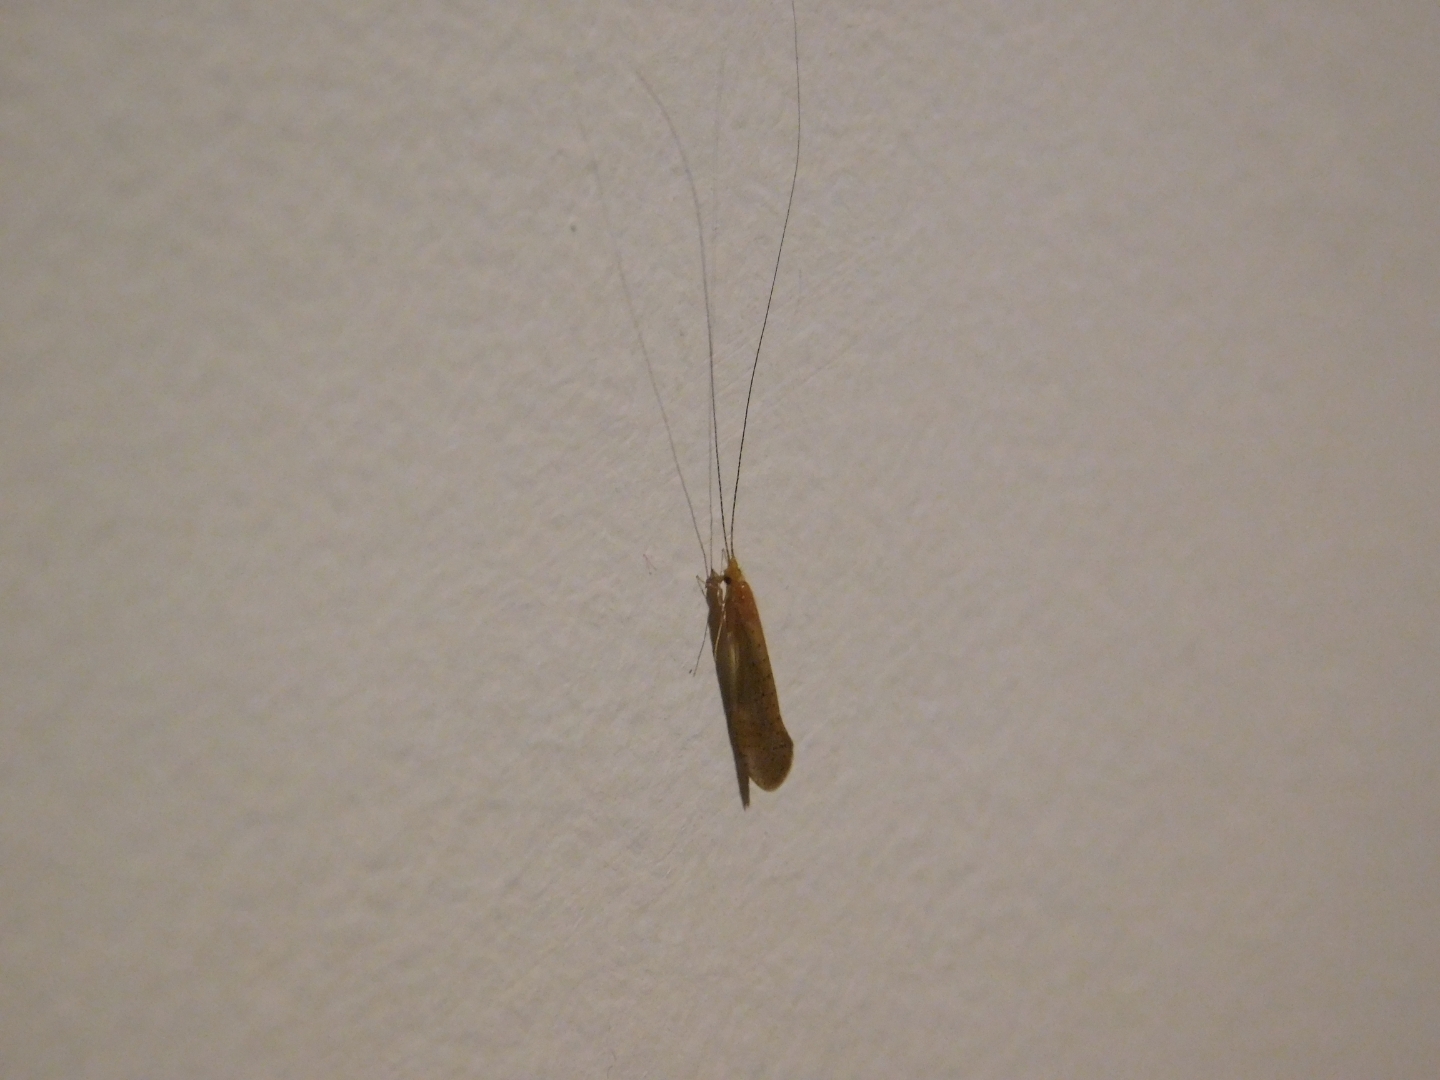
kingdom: Animalia
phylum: Arthropoda
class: Insecta
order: Trichoptera
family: Leptoceridae
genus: Nectopsyche
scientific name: Nectopsyche muhni
